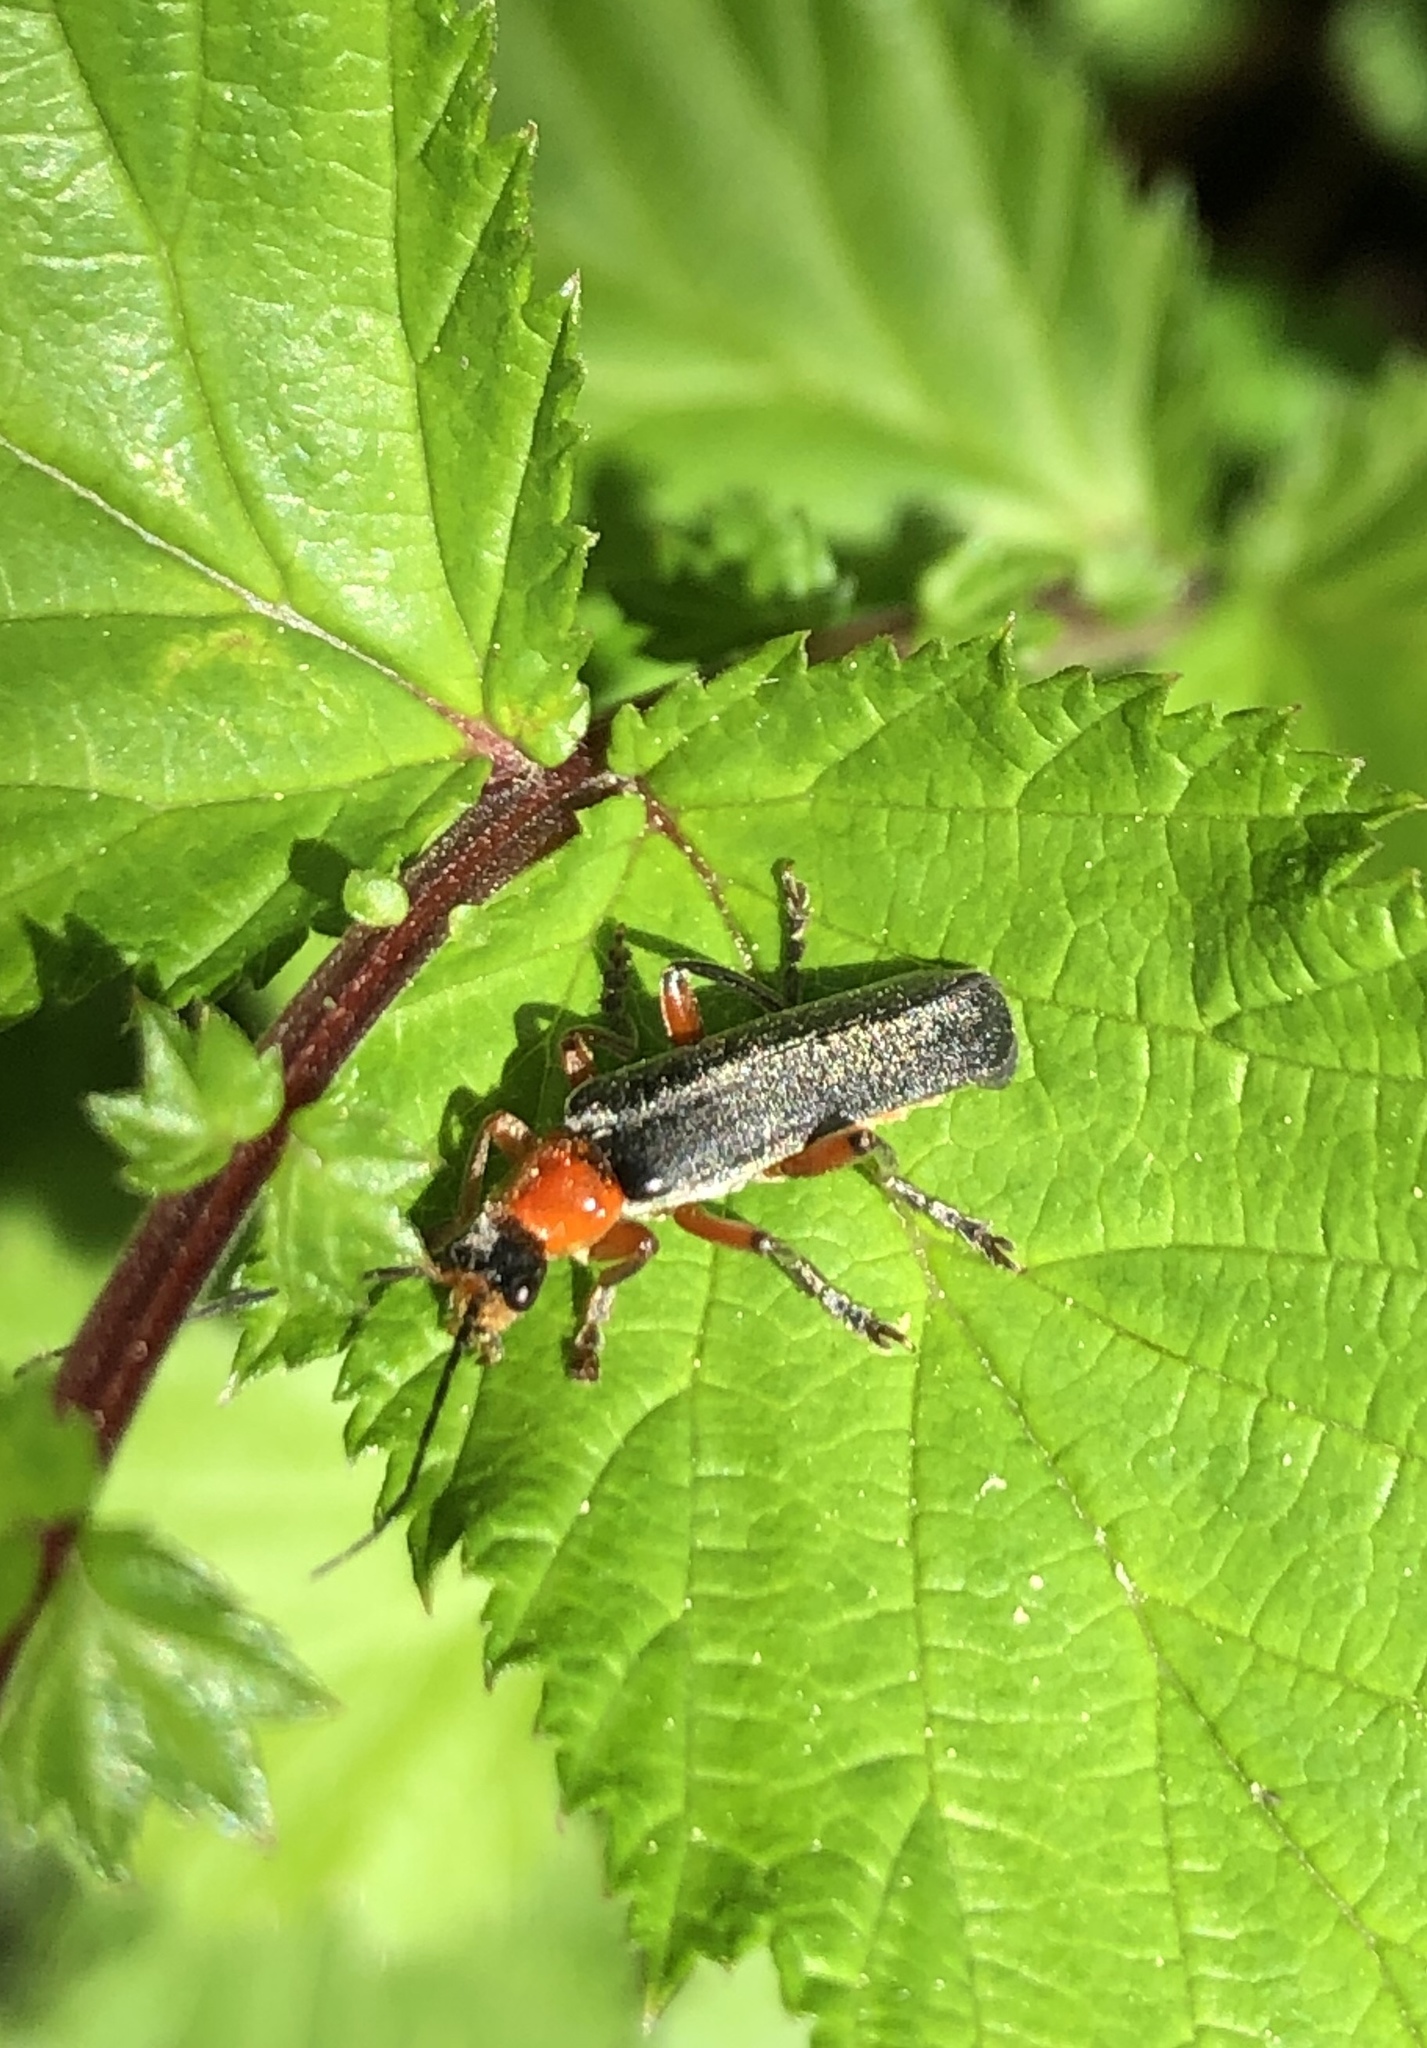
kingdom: Animalia
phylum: Arthropoda
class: Insecta
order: Coleoptera
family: Cantharidae
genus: Cantharis
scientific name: Cantharis pellucida
